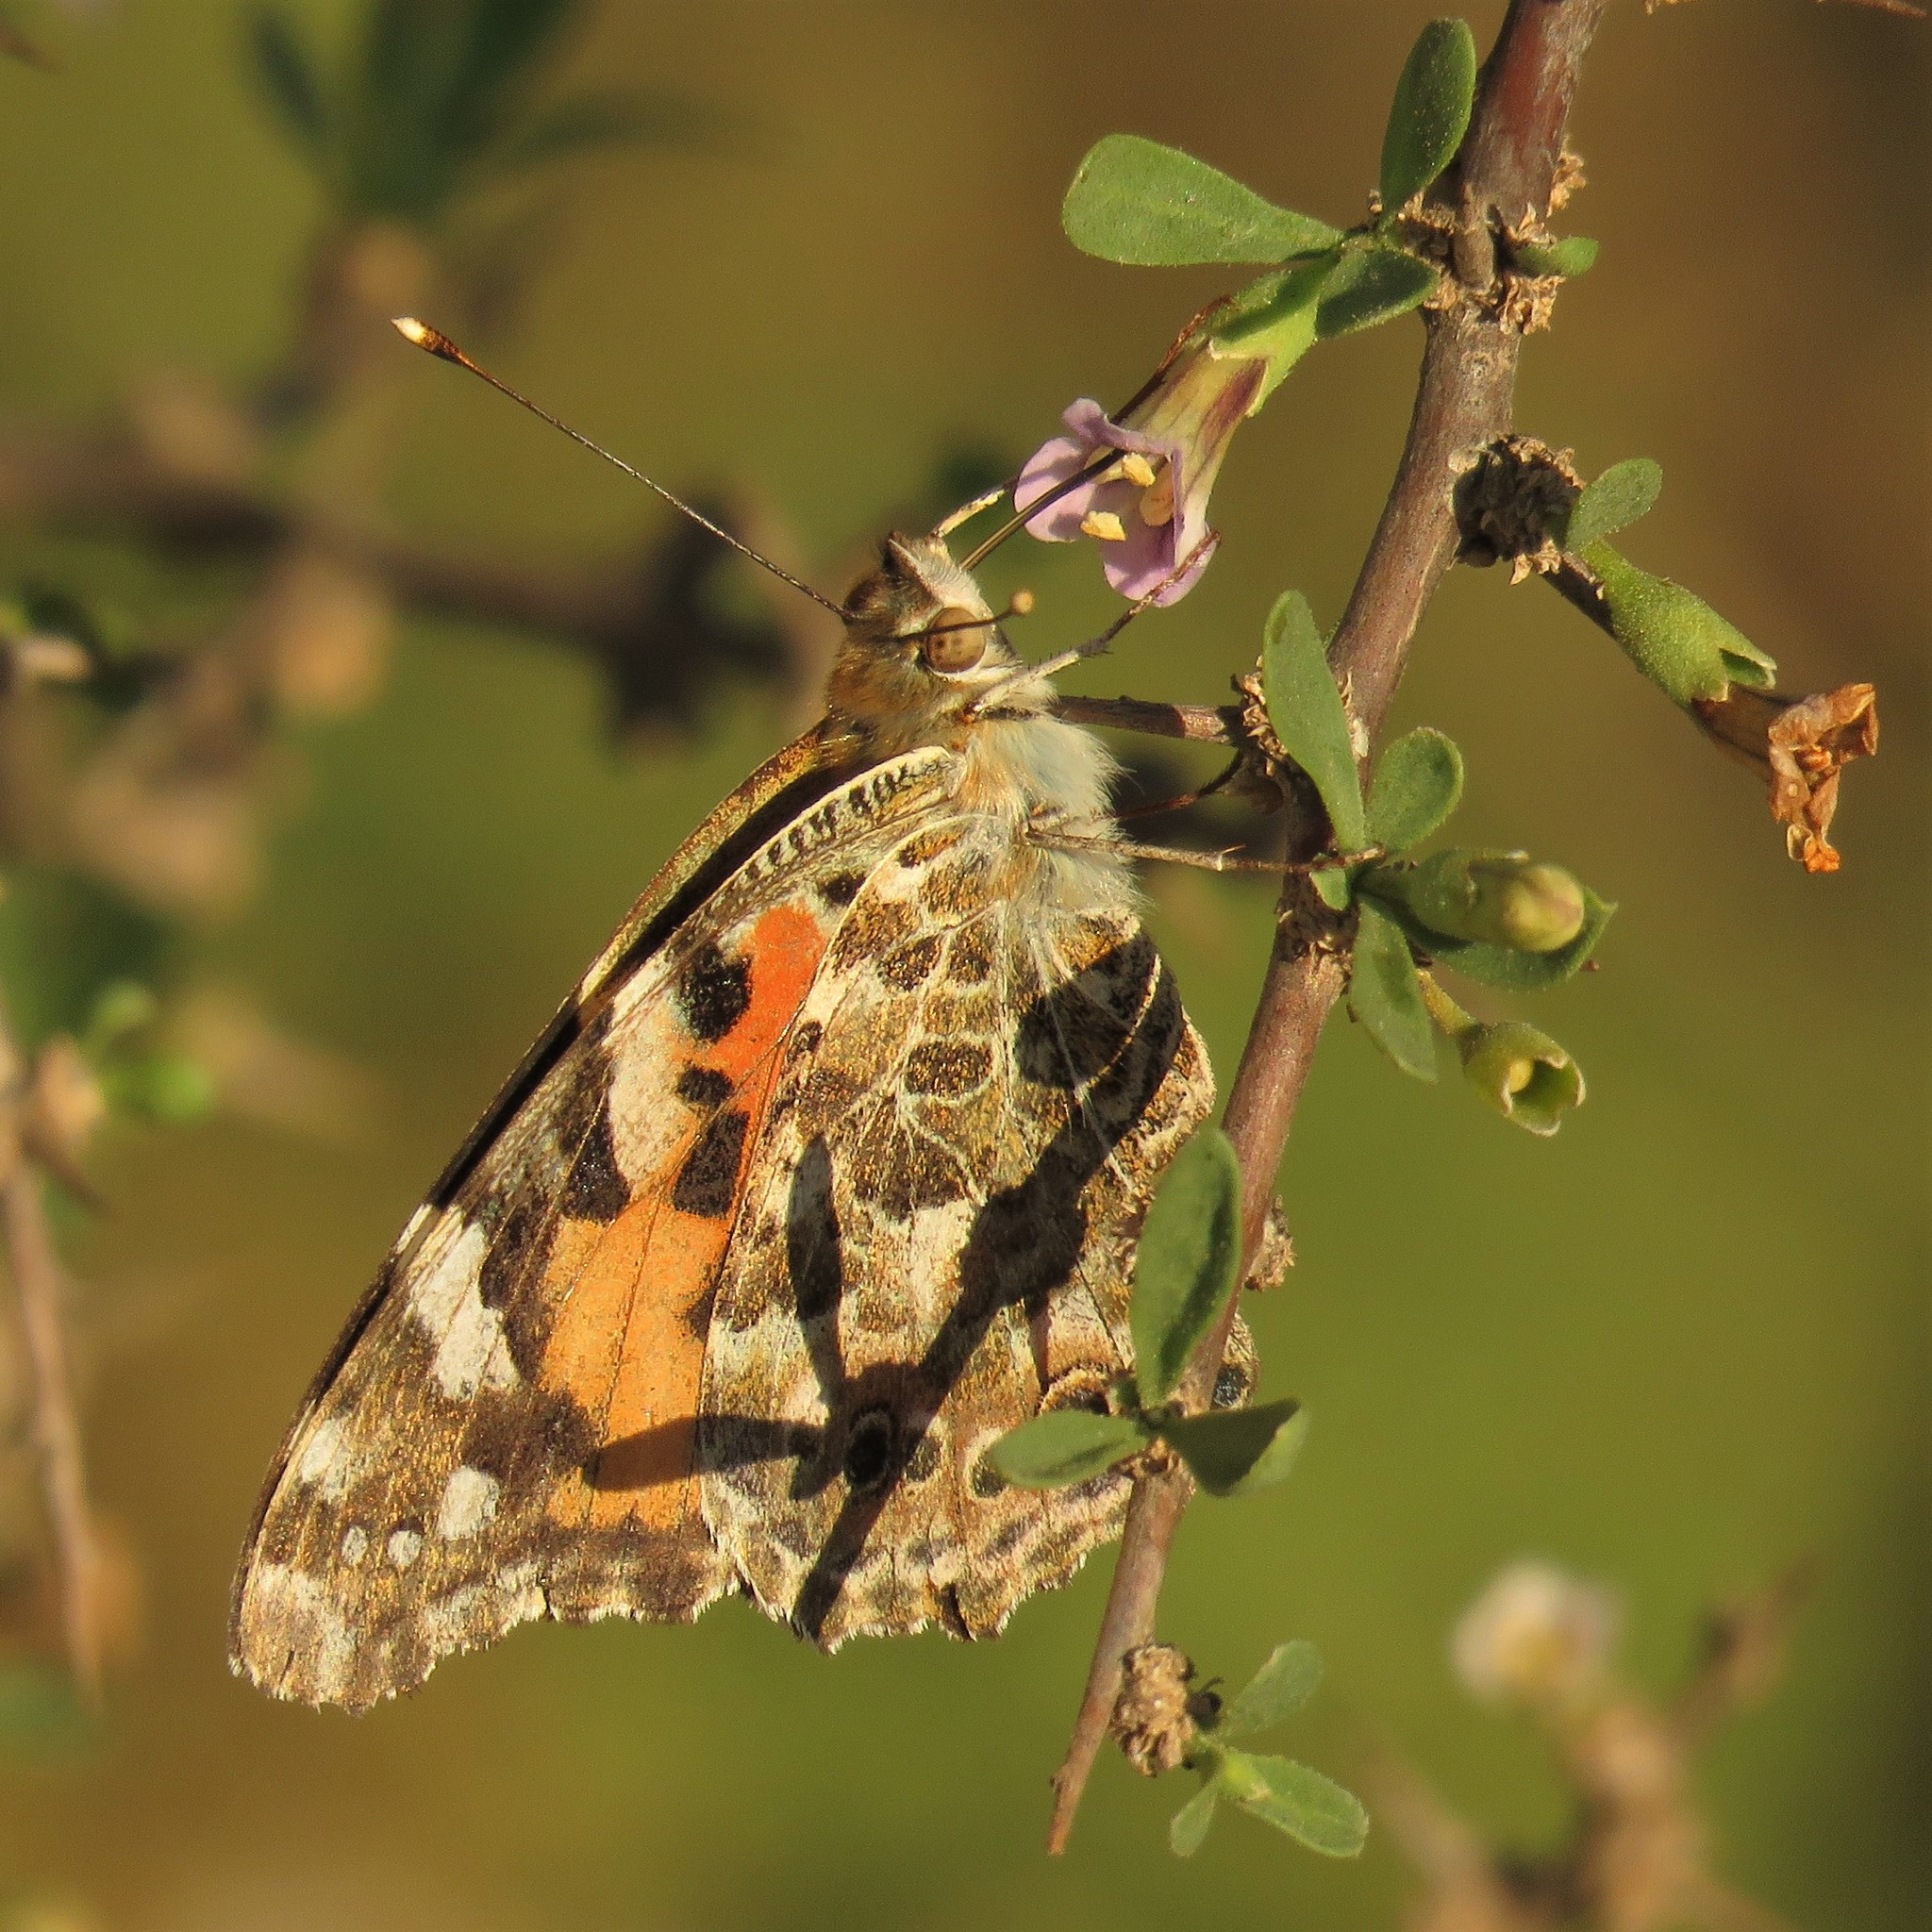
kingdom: Animalia
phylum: Arthropoda
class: Insecta
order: Lepidoptera
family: Nymphalidae
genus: Vanessa
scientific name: Vanessa cardui
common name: Painted lady
